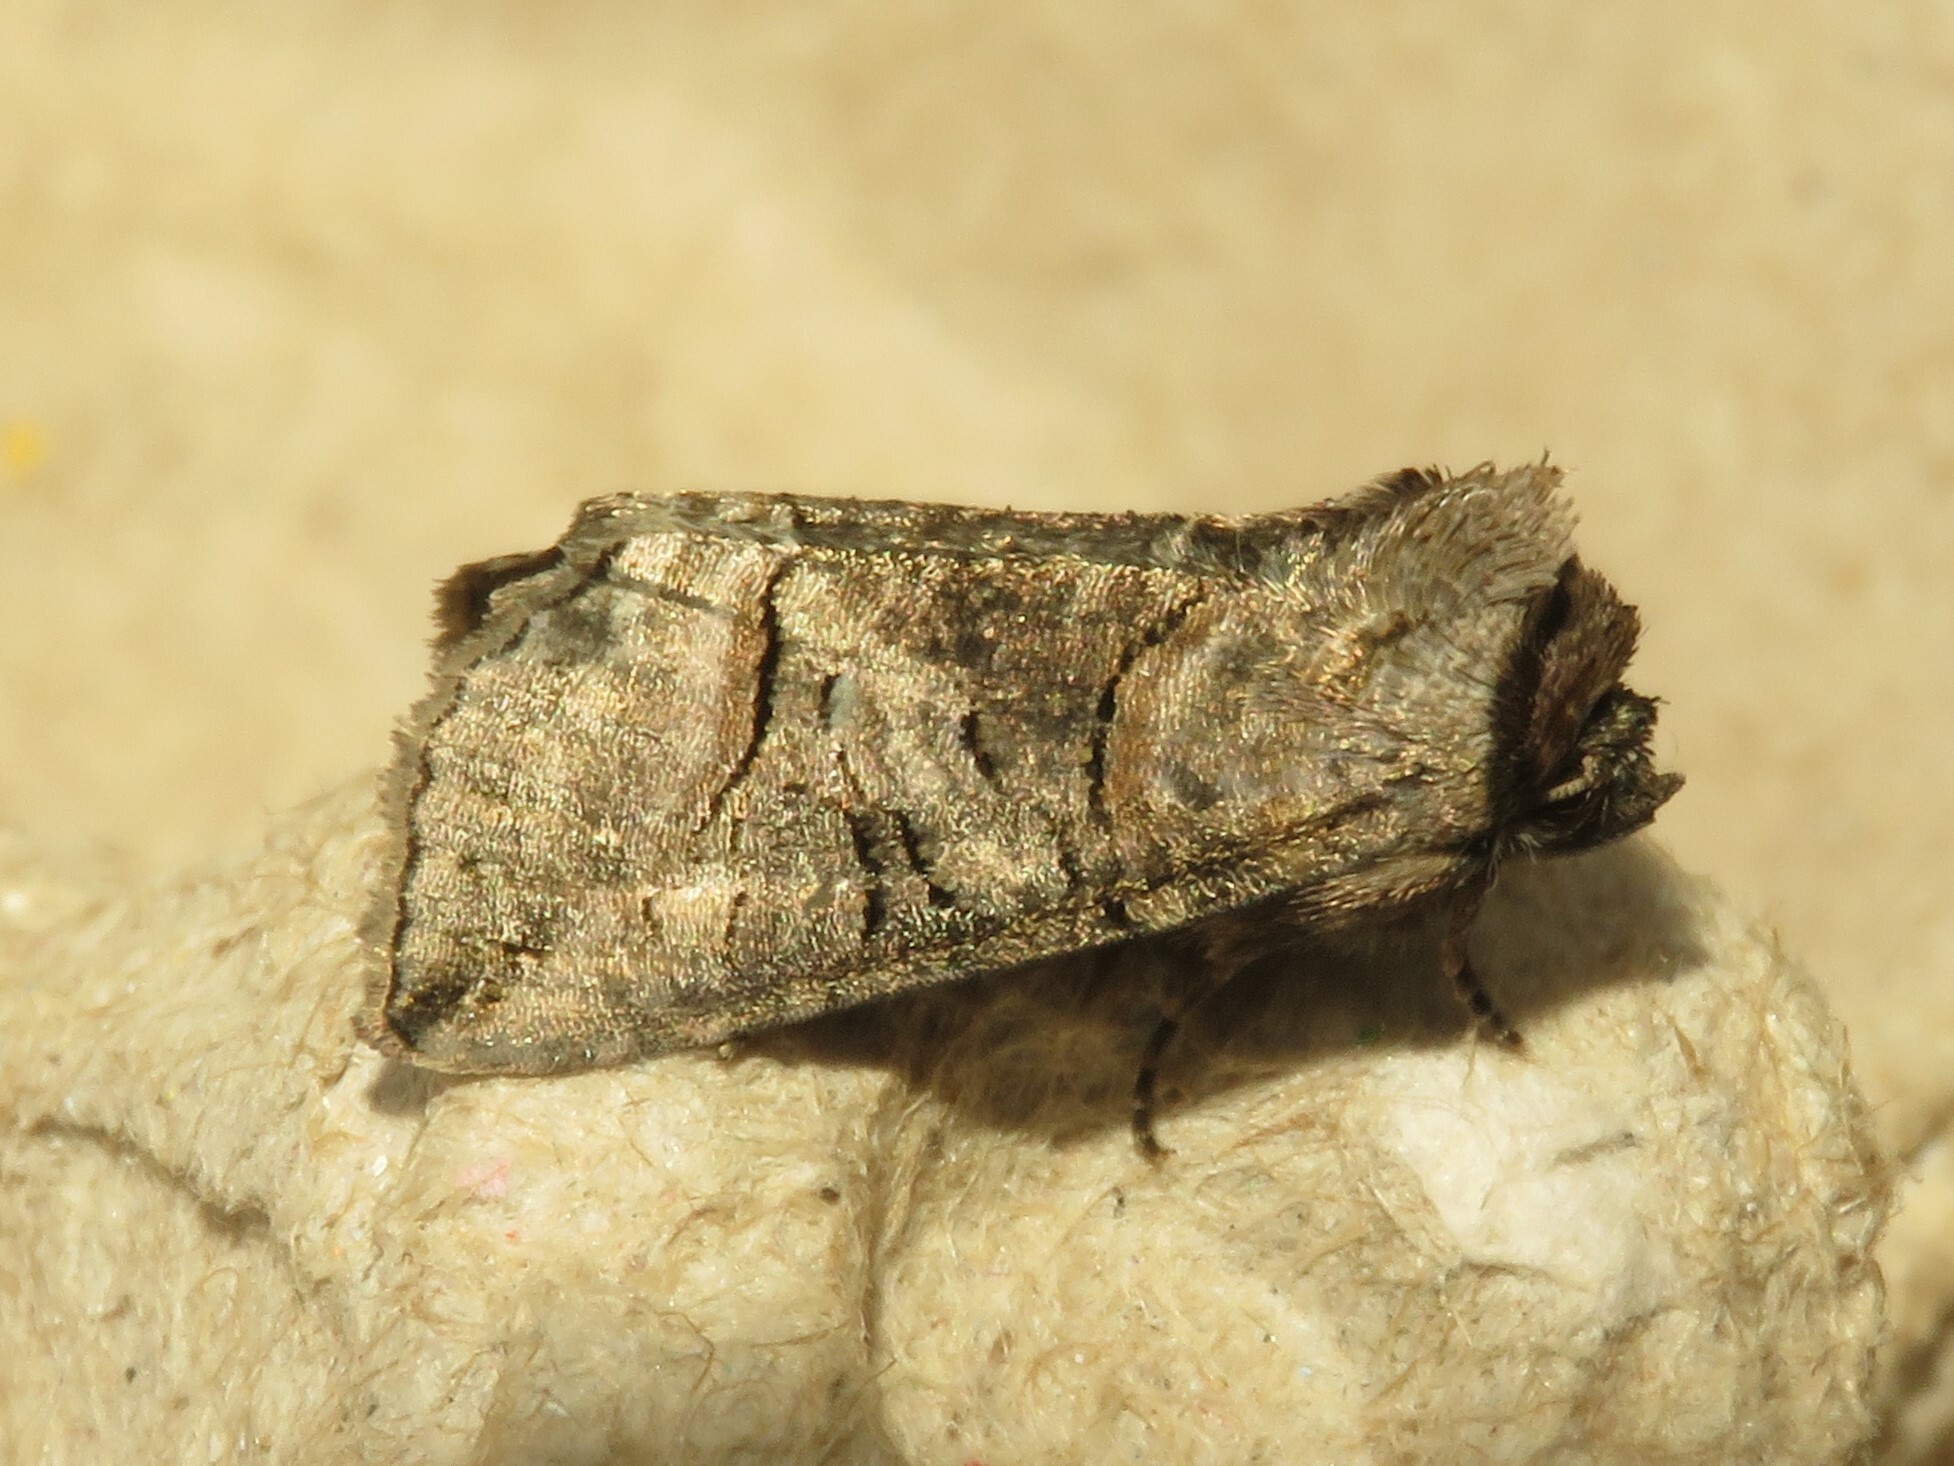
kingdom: Animalia
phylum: Arthropoda
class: Insecta
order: Lepidoptera
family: Noctuidae
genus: Abrostola
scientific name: Abrostola urentis
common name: Spectacled nettle moth
